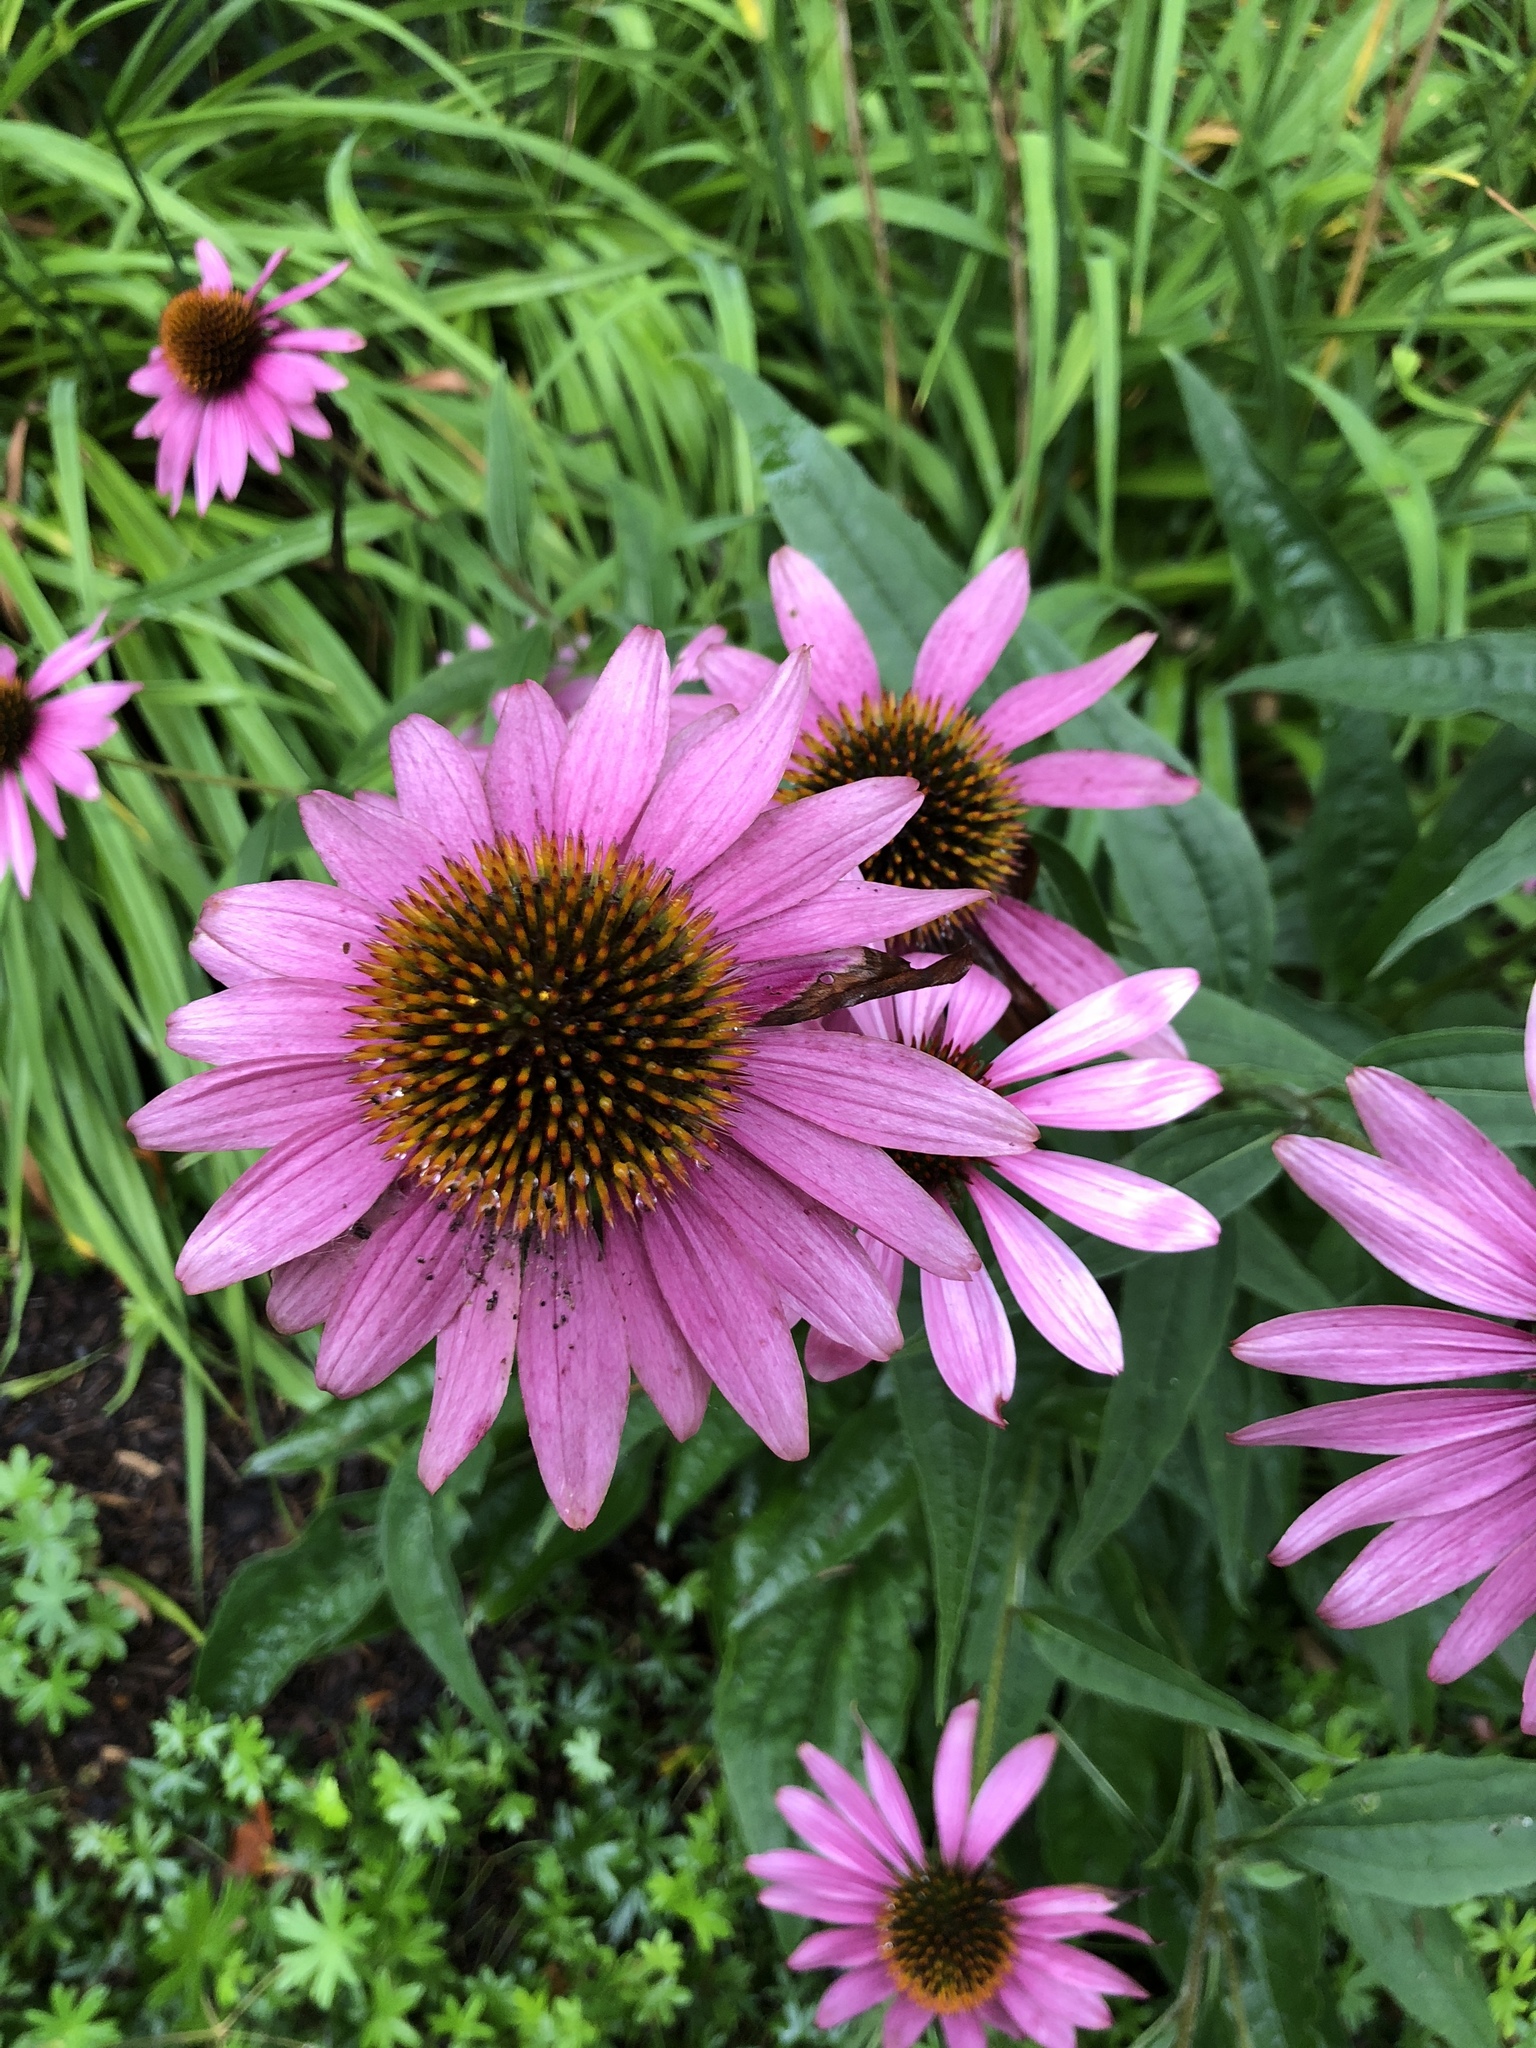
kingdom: Plantae
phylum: Tracheophyta
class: Magnoliopsida
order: Asterales
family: Asteraceae
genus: Echinacea
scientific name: Echinacea purpurea
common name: Broad-leaved purple coneflower
